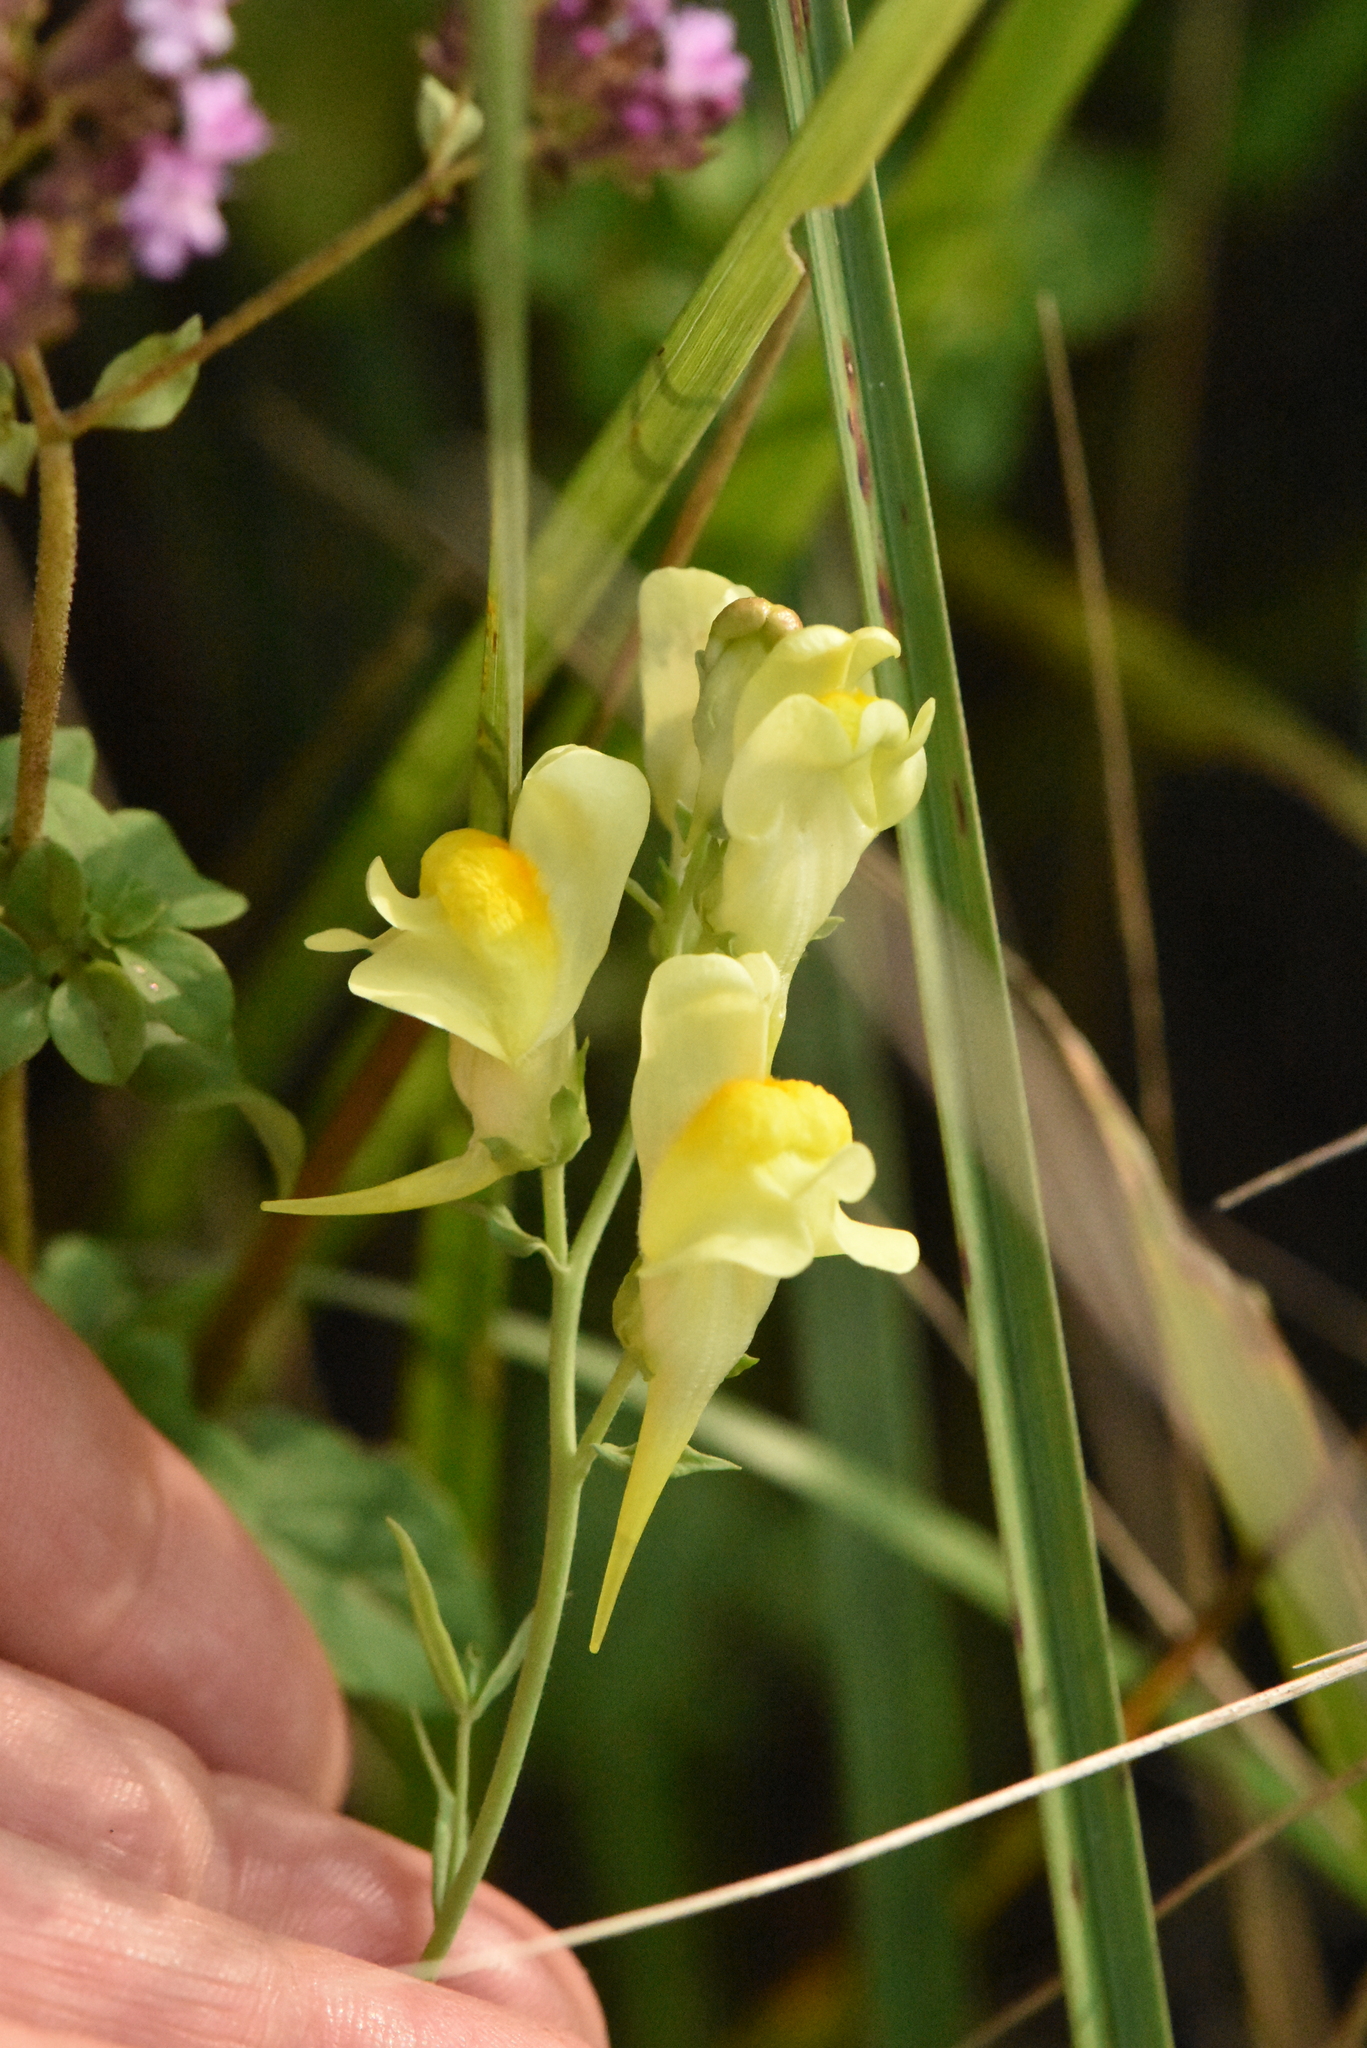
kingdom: Plantae
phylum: Tracheophyta
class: Magnoliopsida
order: Lamiales
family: Plantaginaceae
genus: Linaria
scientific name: Linaria vulgaris
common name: Butter and eggs
